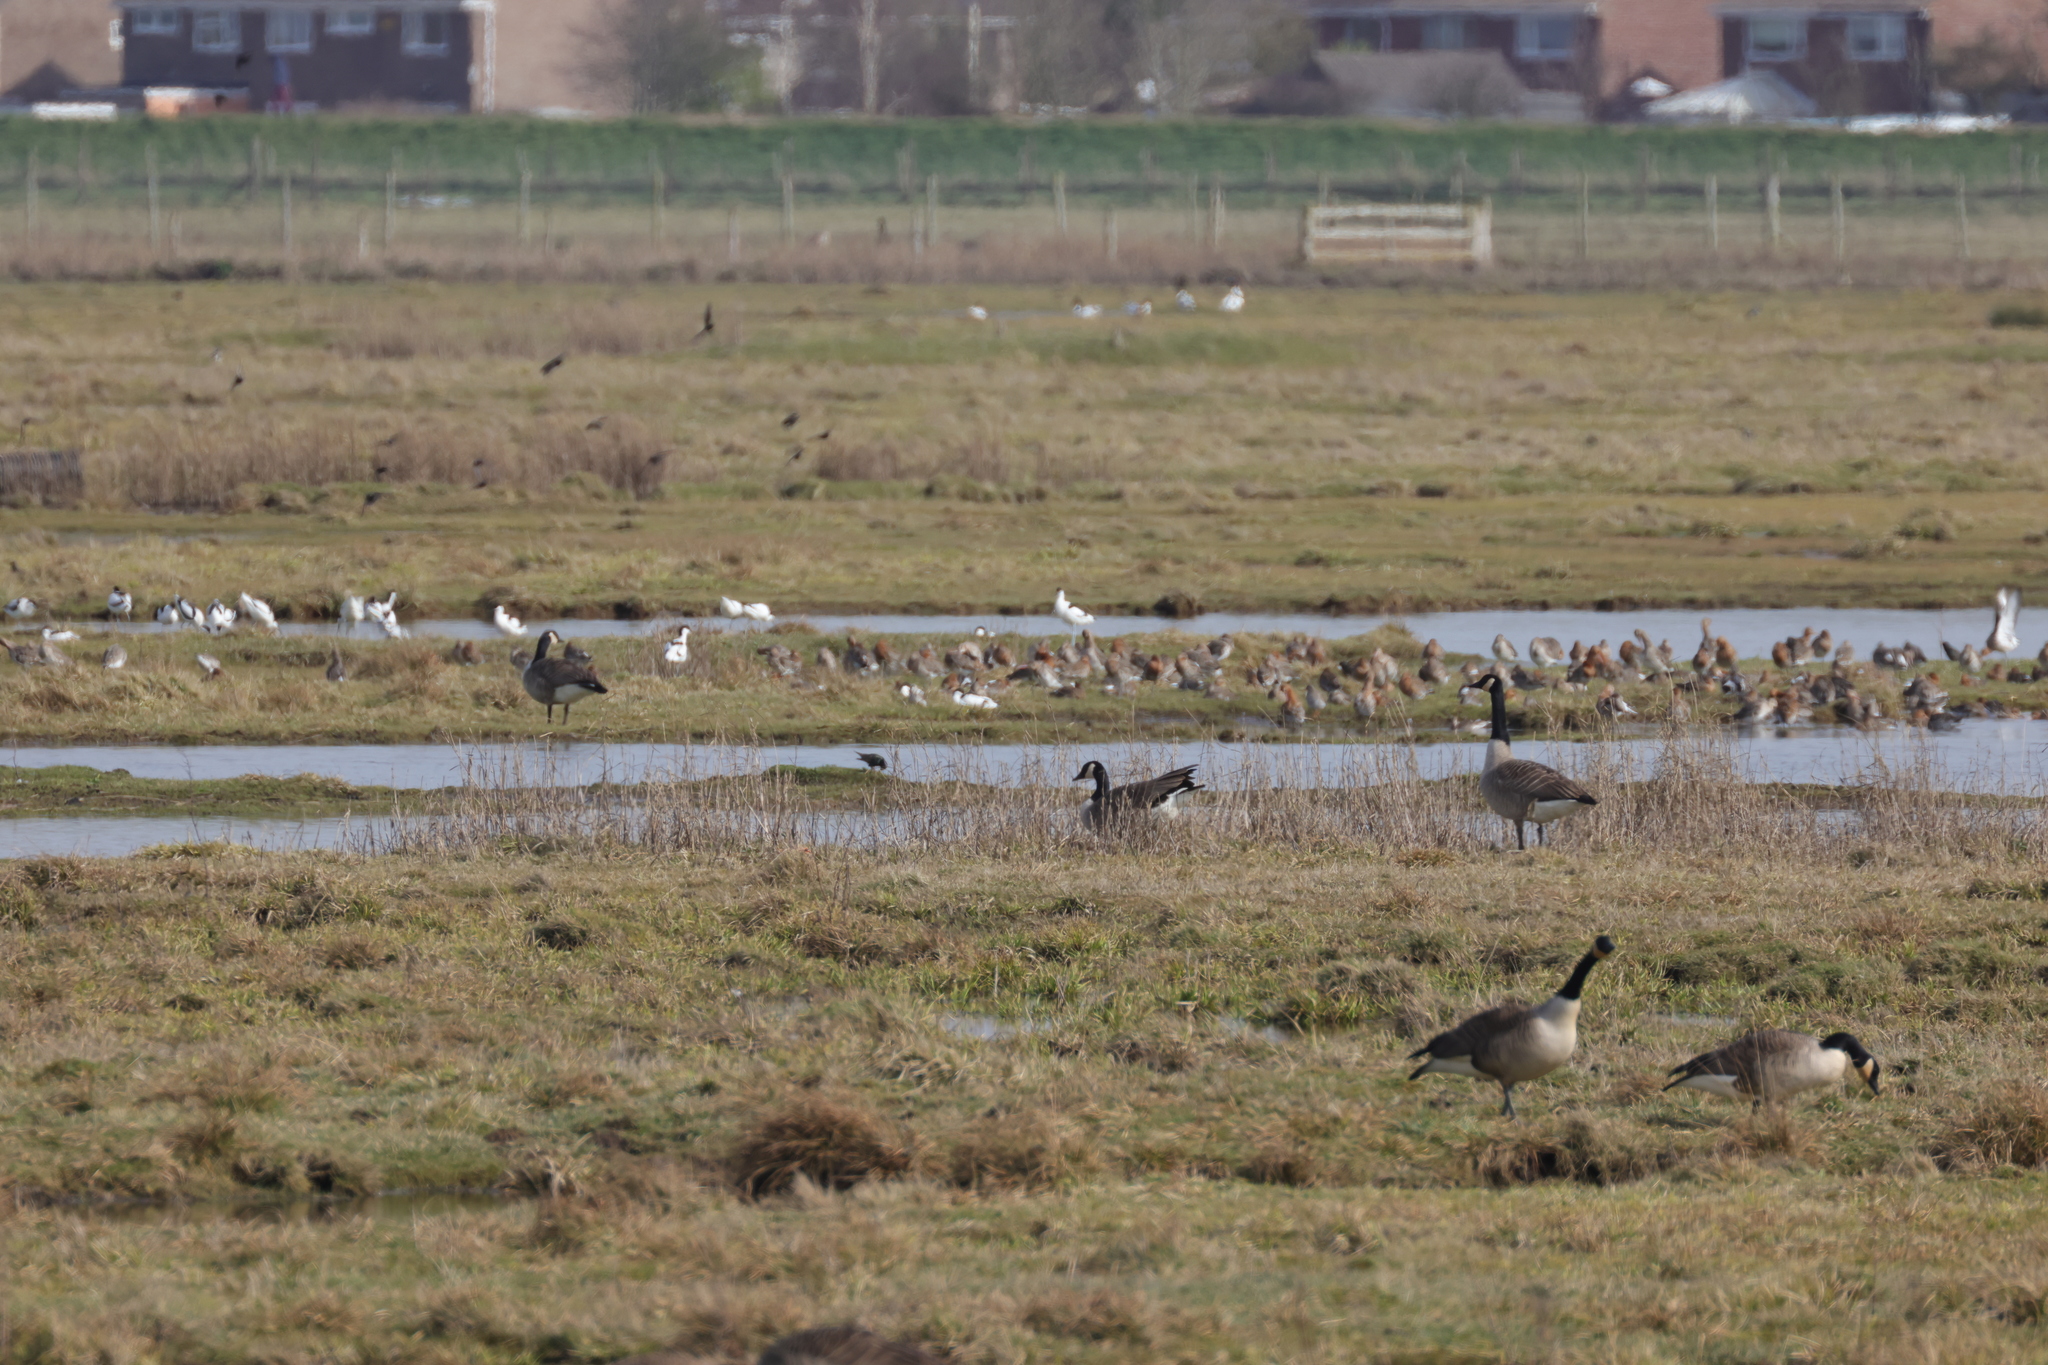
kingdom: Animalia
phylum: Chordata
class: Aves
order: Charadriiformes
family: Recurvirostridae
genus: Recurvirostra
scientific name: Recurvirostra avosetta
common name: Pied avocet
